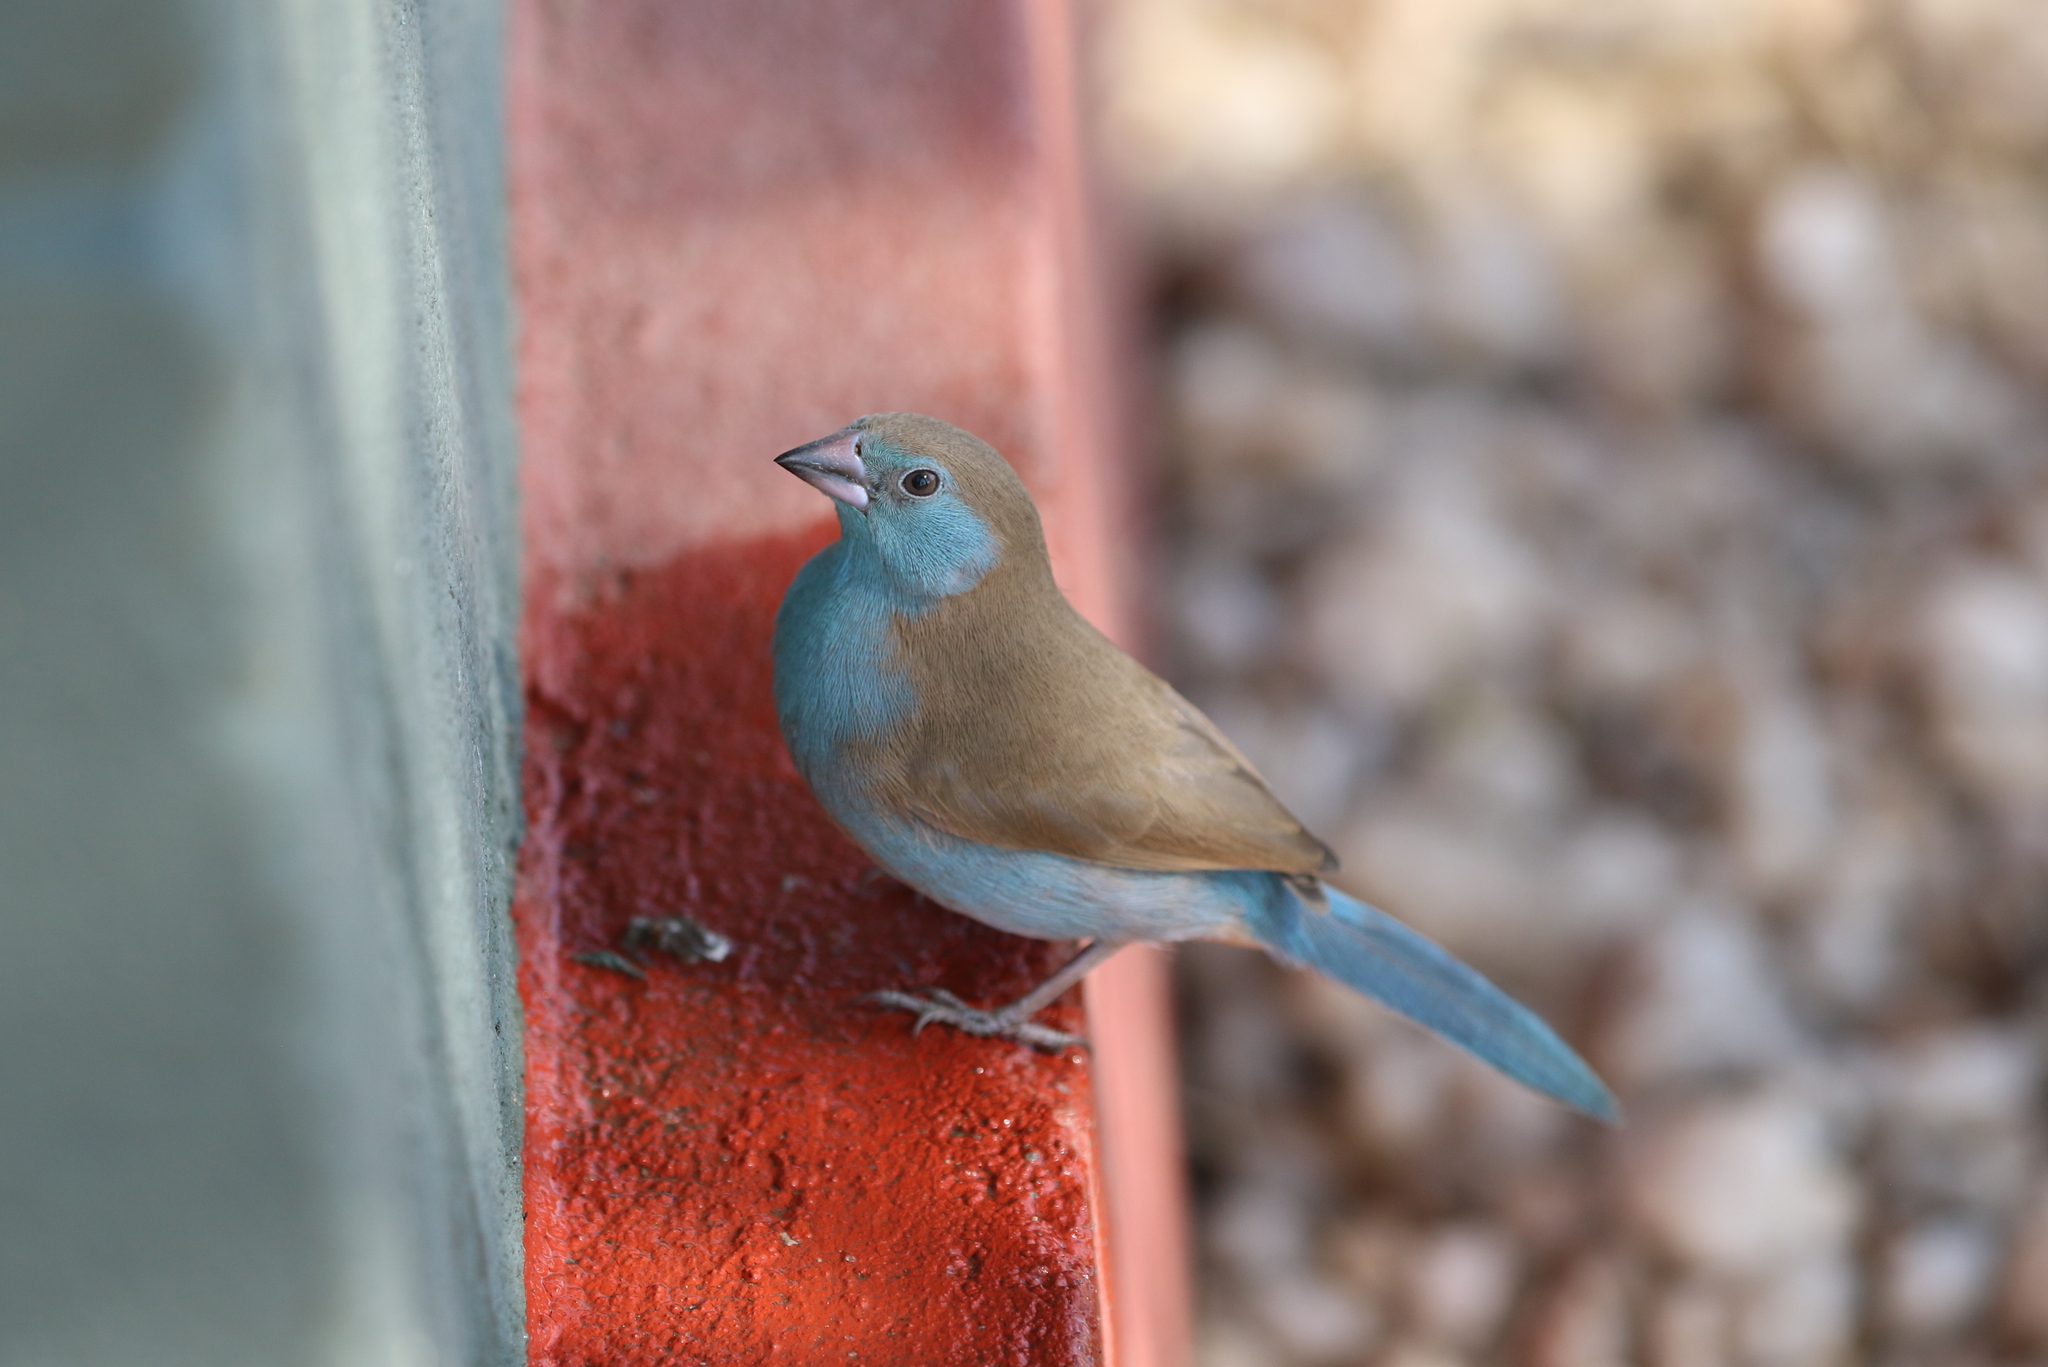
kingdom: Animalia
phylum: Chordata
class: Aves
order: Passeriformes
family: Estrildidae
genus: Uraeginthus
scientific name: Uraeginthus bengalus
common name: Red-cheeked cordon-bleu
